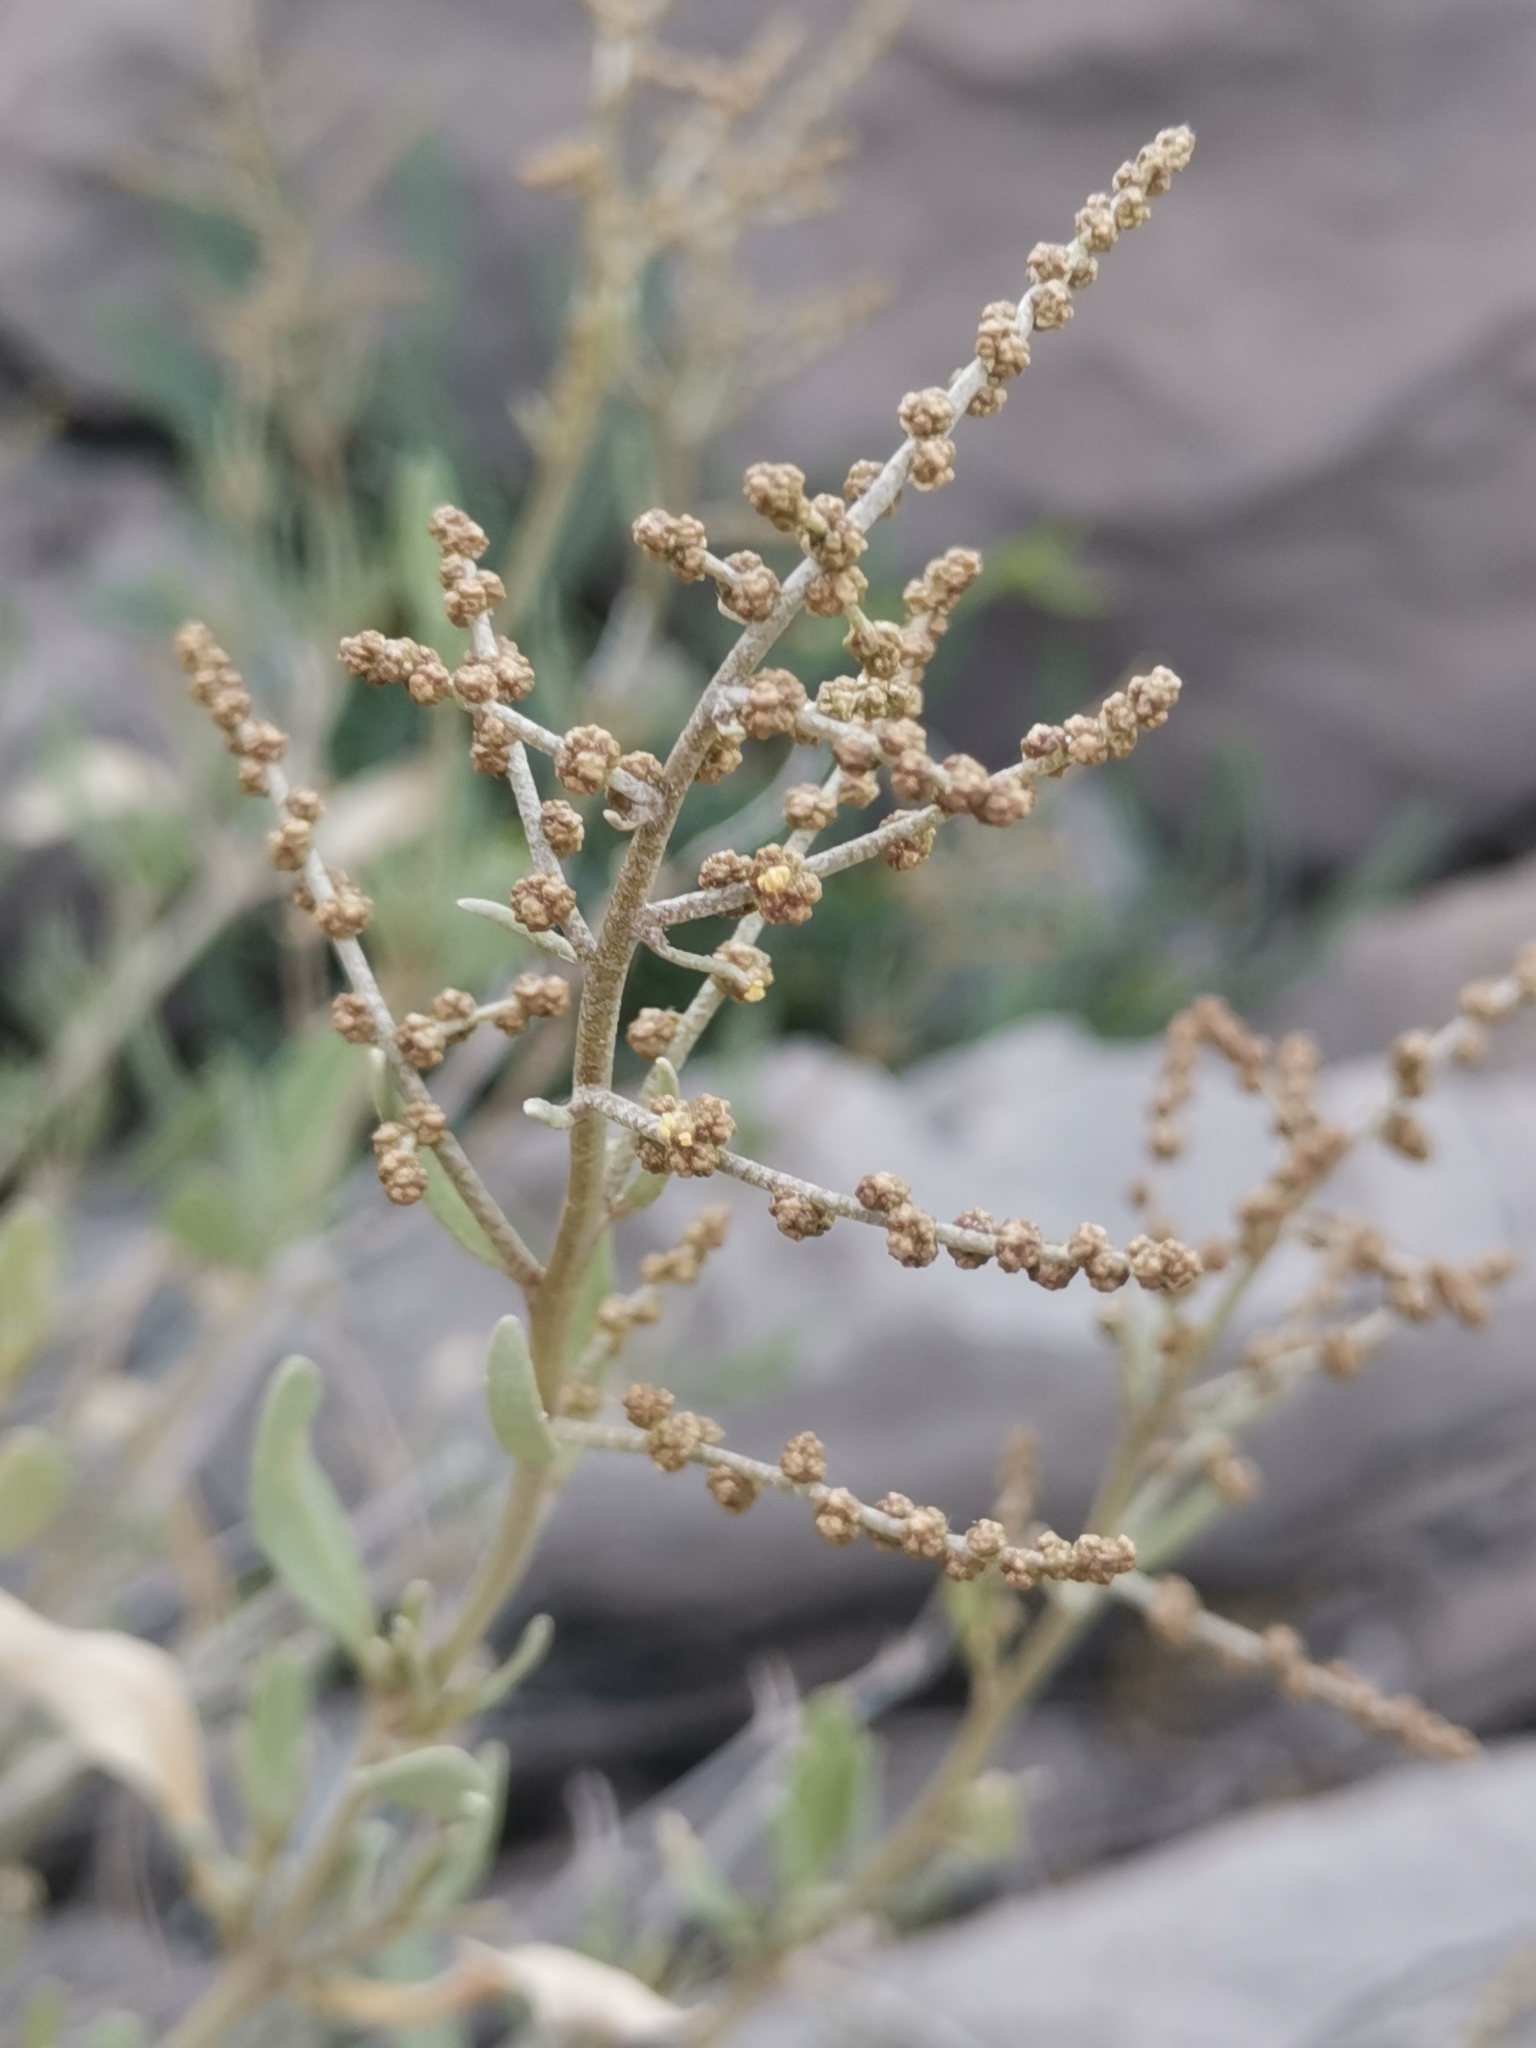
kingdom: Plantae
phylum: Tracheophyta
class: Magnoliopsida
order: Caryophyllales
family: Amaranthaceae
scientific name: Amaranthaceae
